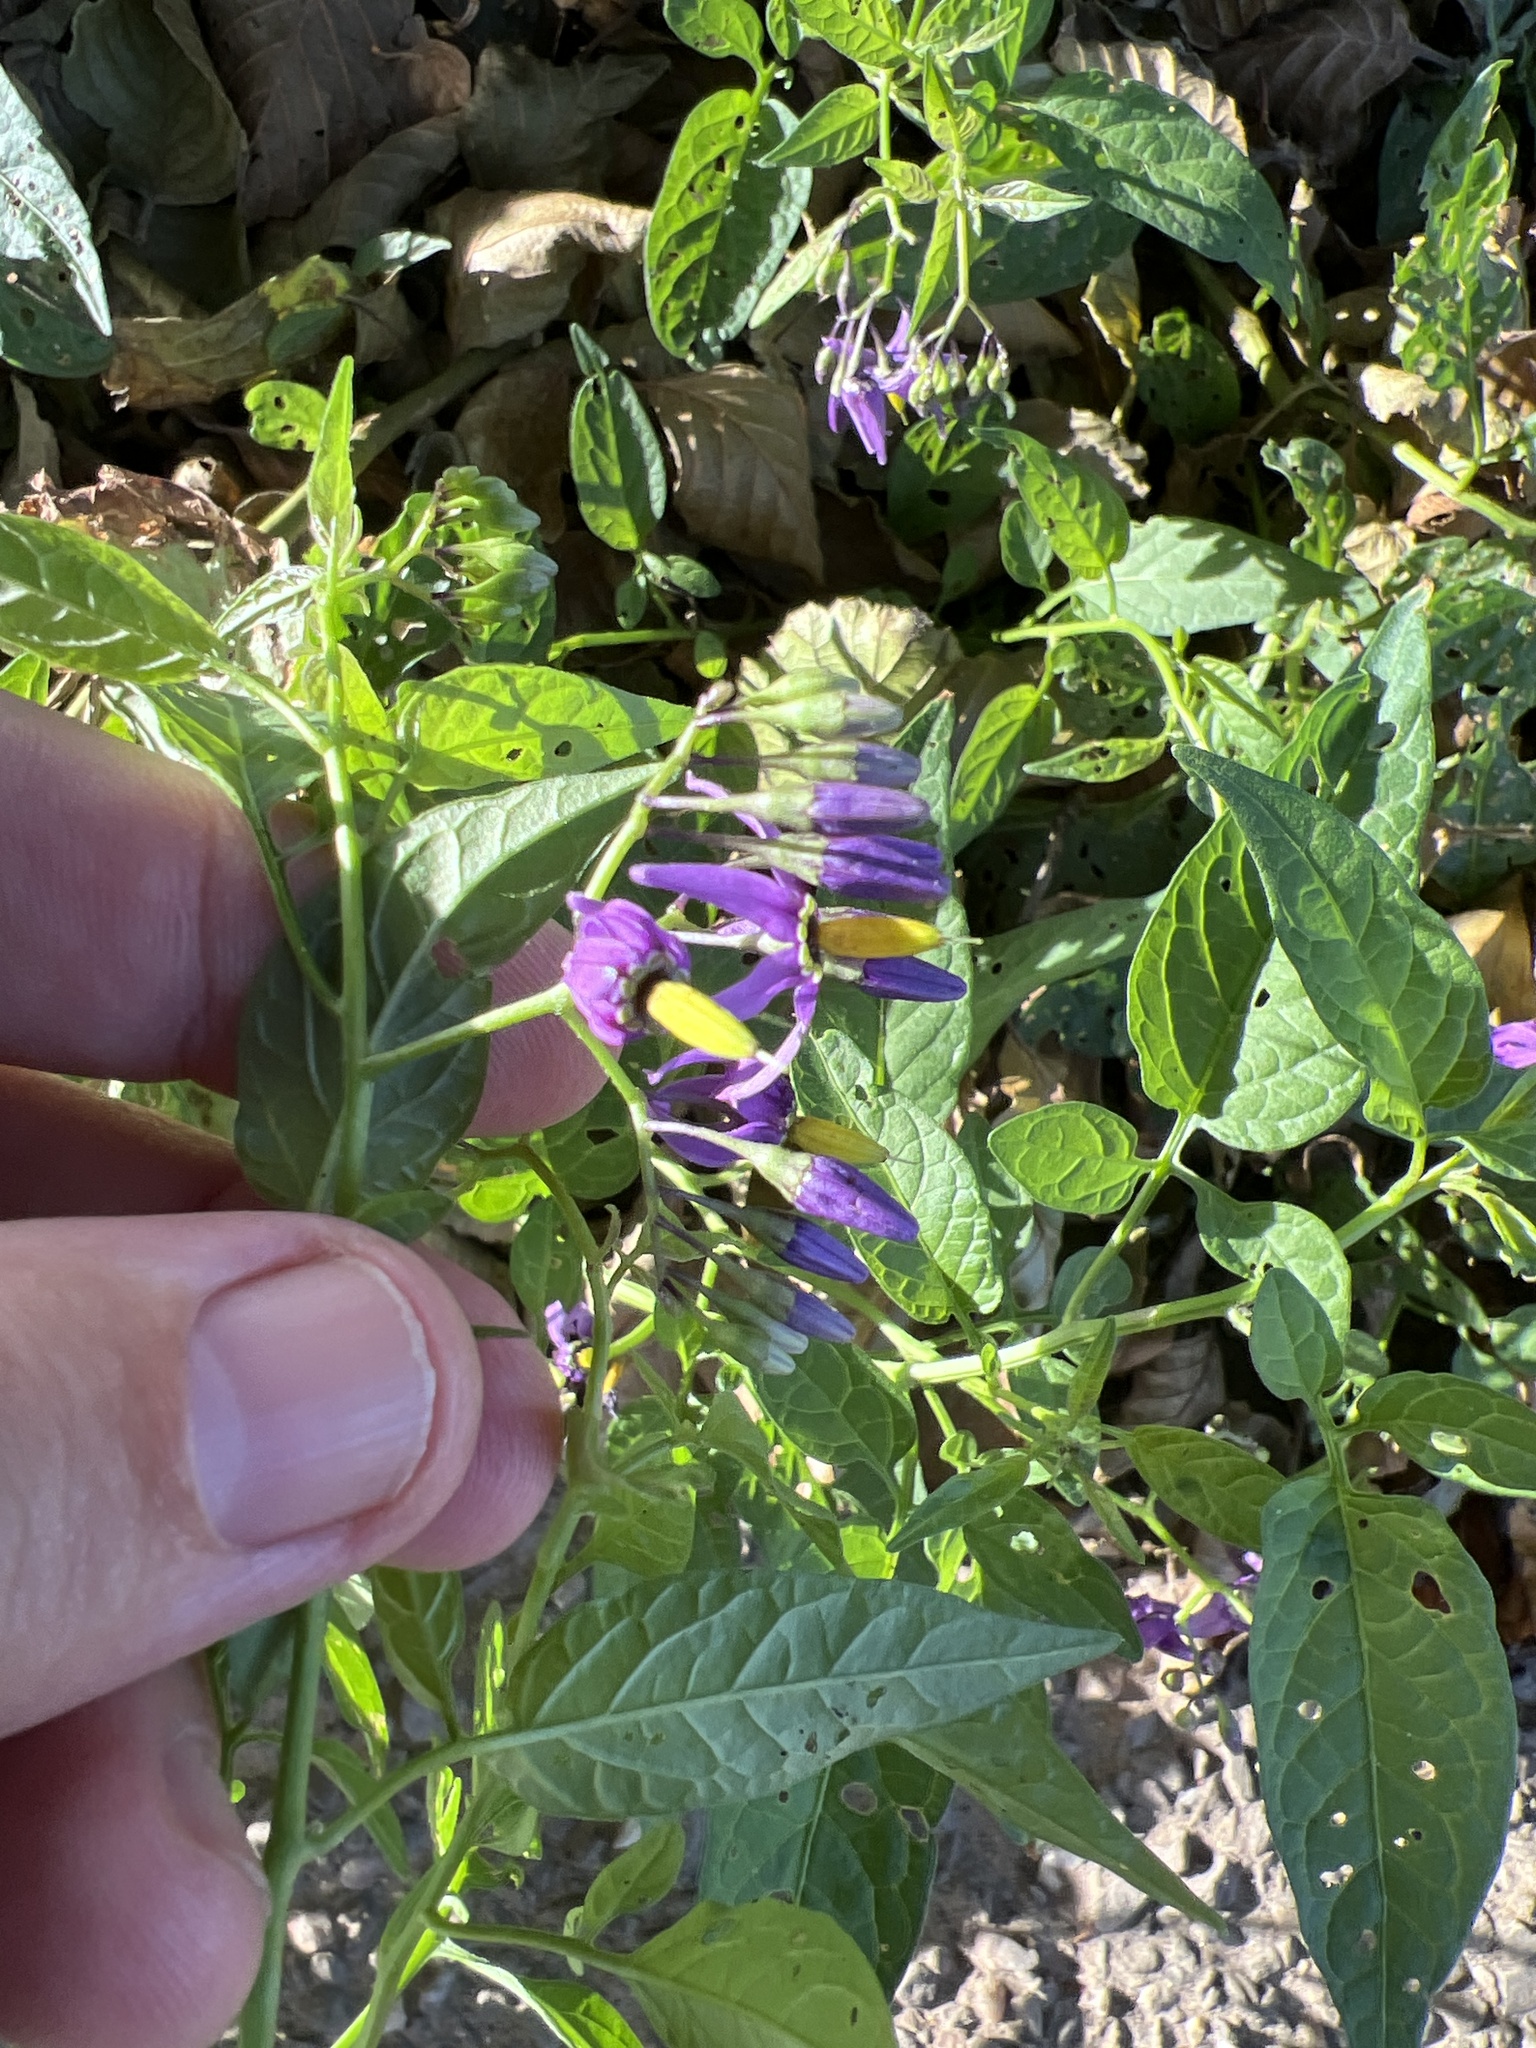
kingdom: Plantae
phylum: Tracheophyta
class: Magnoliopsida
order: Solanales
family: Solanaceae
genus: Solanum
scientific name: Solanum dulcamara
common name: Climbing nightshade
